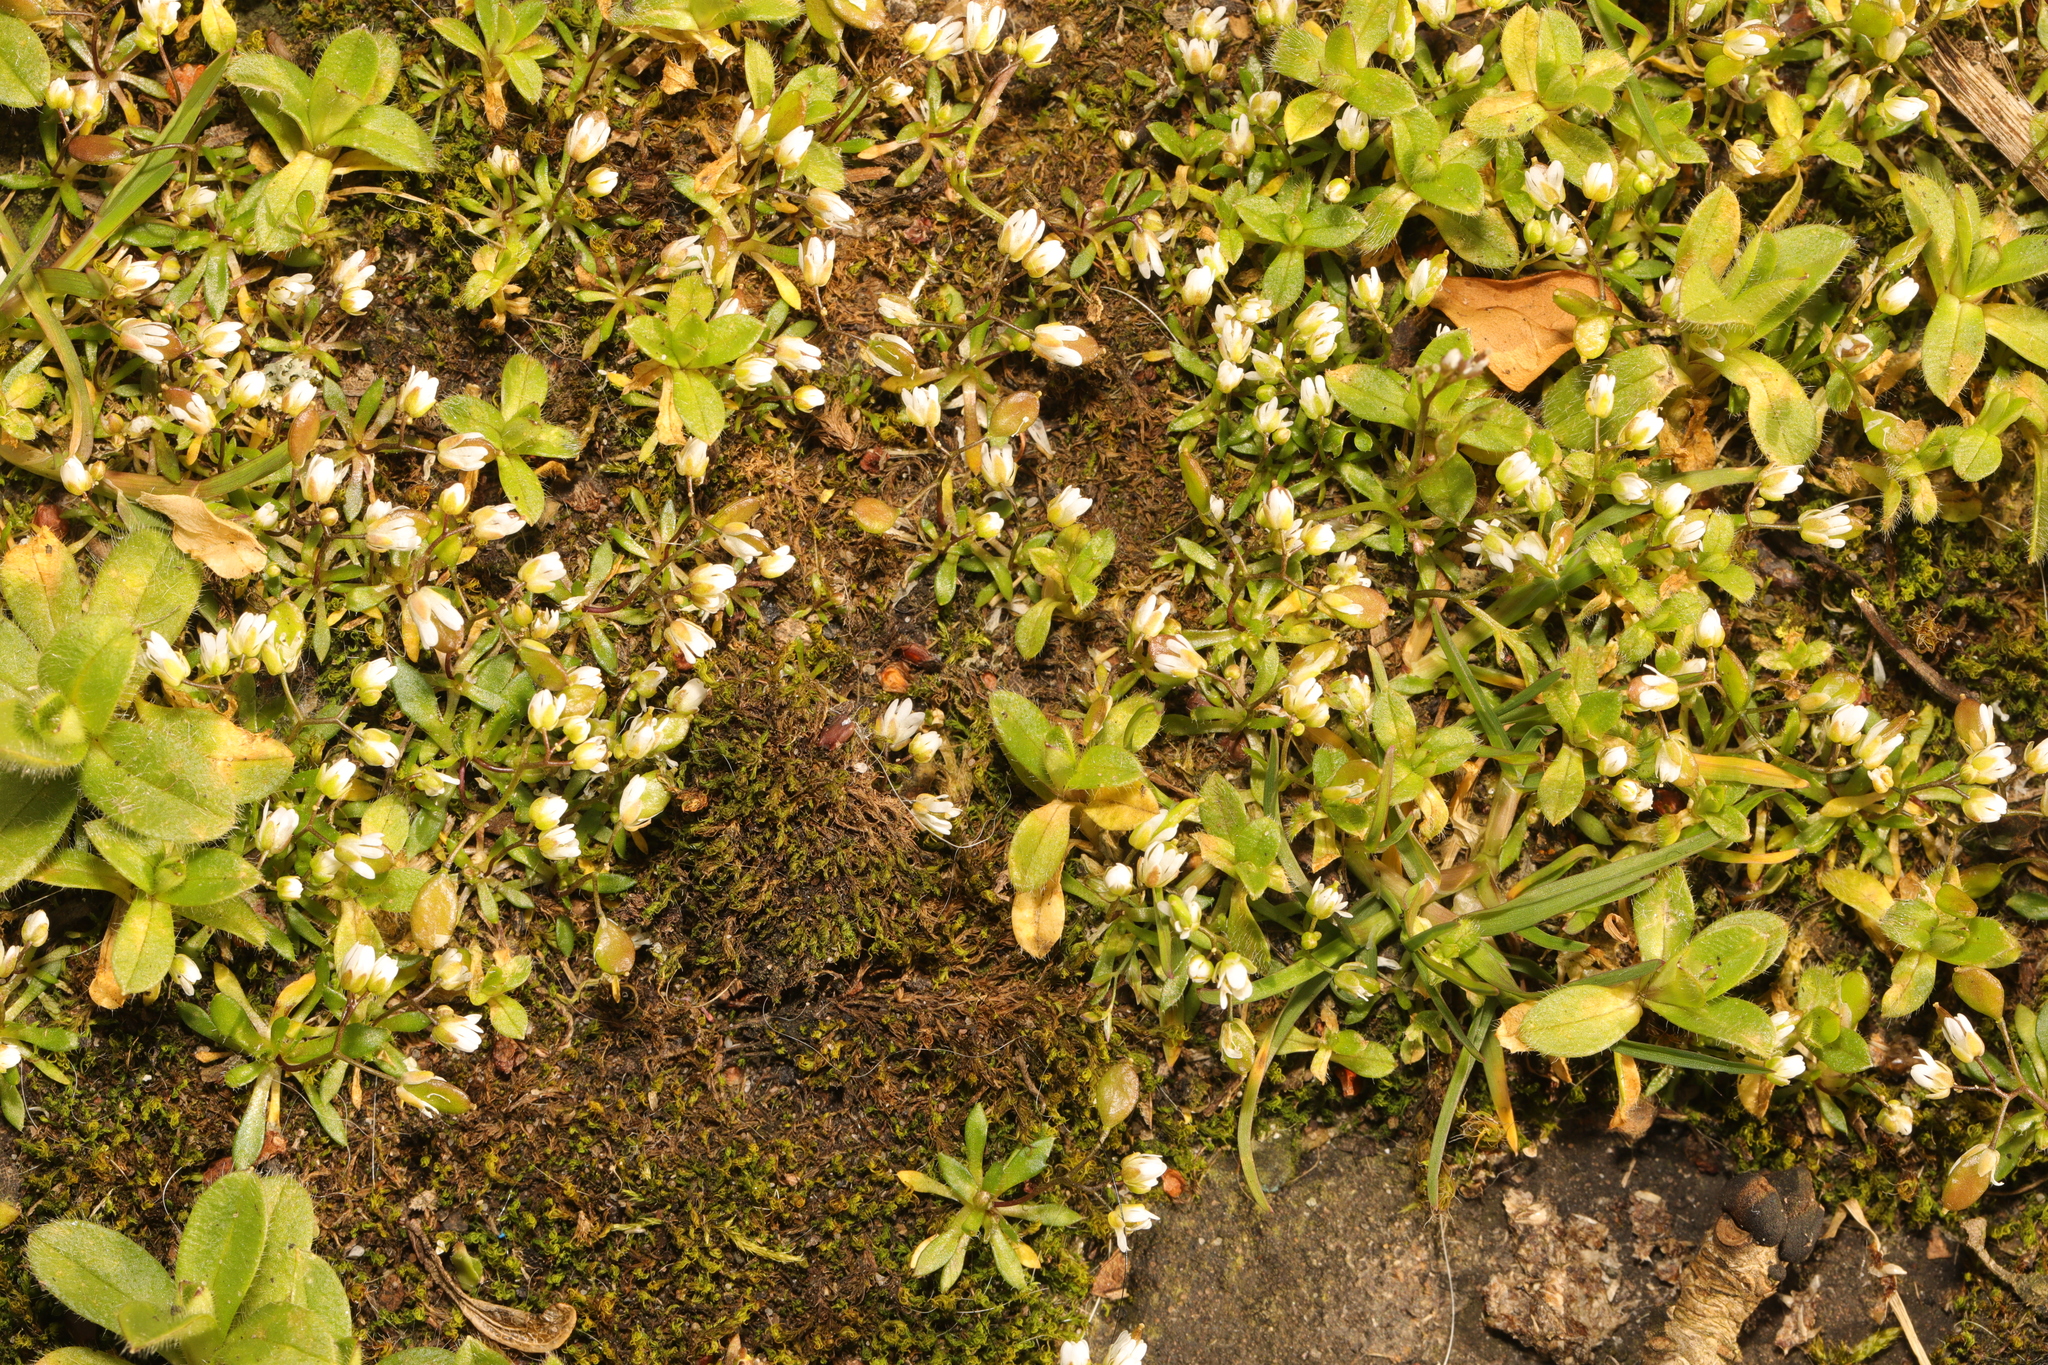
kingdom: Plantae
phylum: Tracheophyta
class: Magnoliopsida
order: Brassicales
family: Brassicaceae
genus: Draba
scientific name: Draba verna
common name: Spring draba
